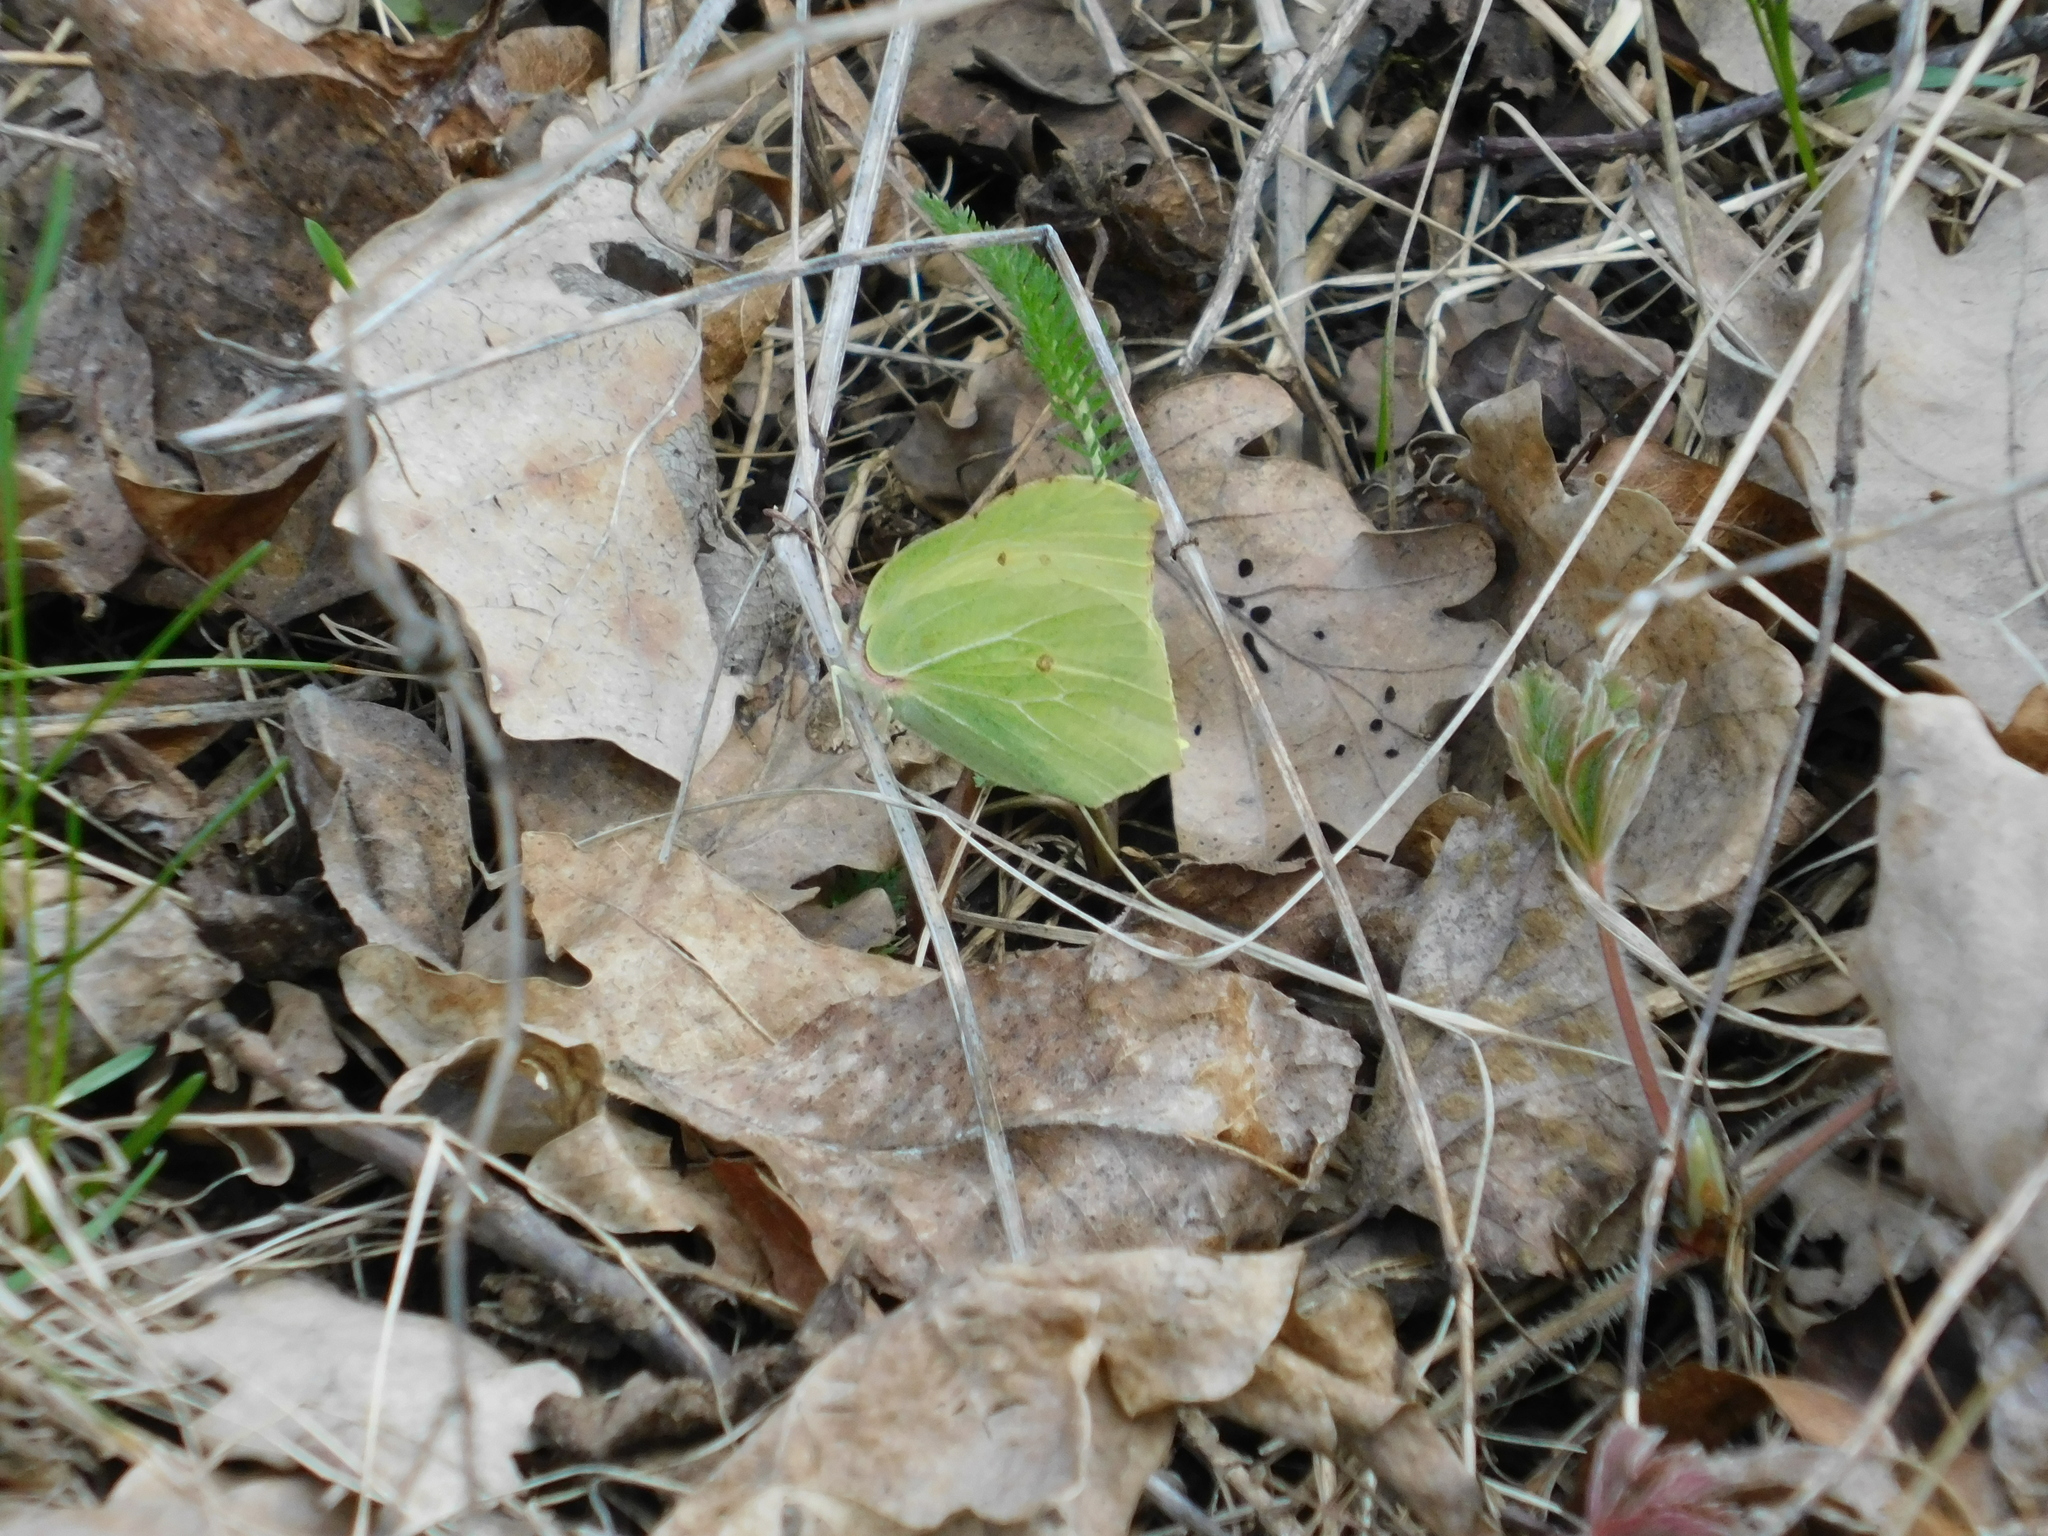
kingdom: Animalia
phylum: Arthropoda
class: Insecta
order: Lepidoptera
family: Pieridae
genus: Gonepteryx
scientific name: Gonepteryx rhamni
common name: Brimstone
